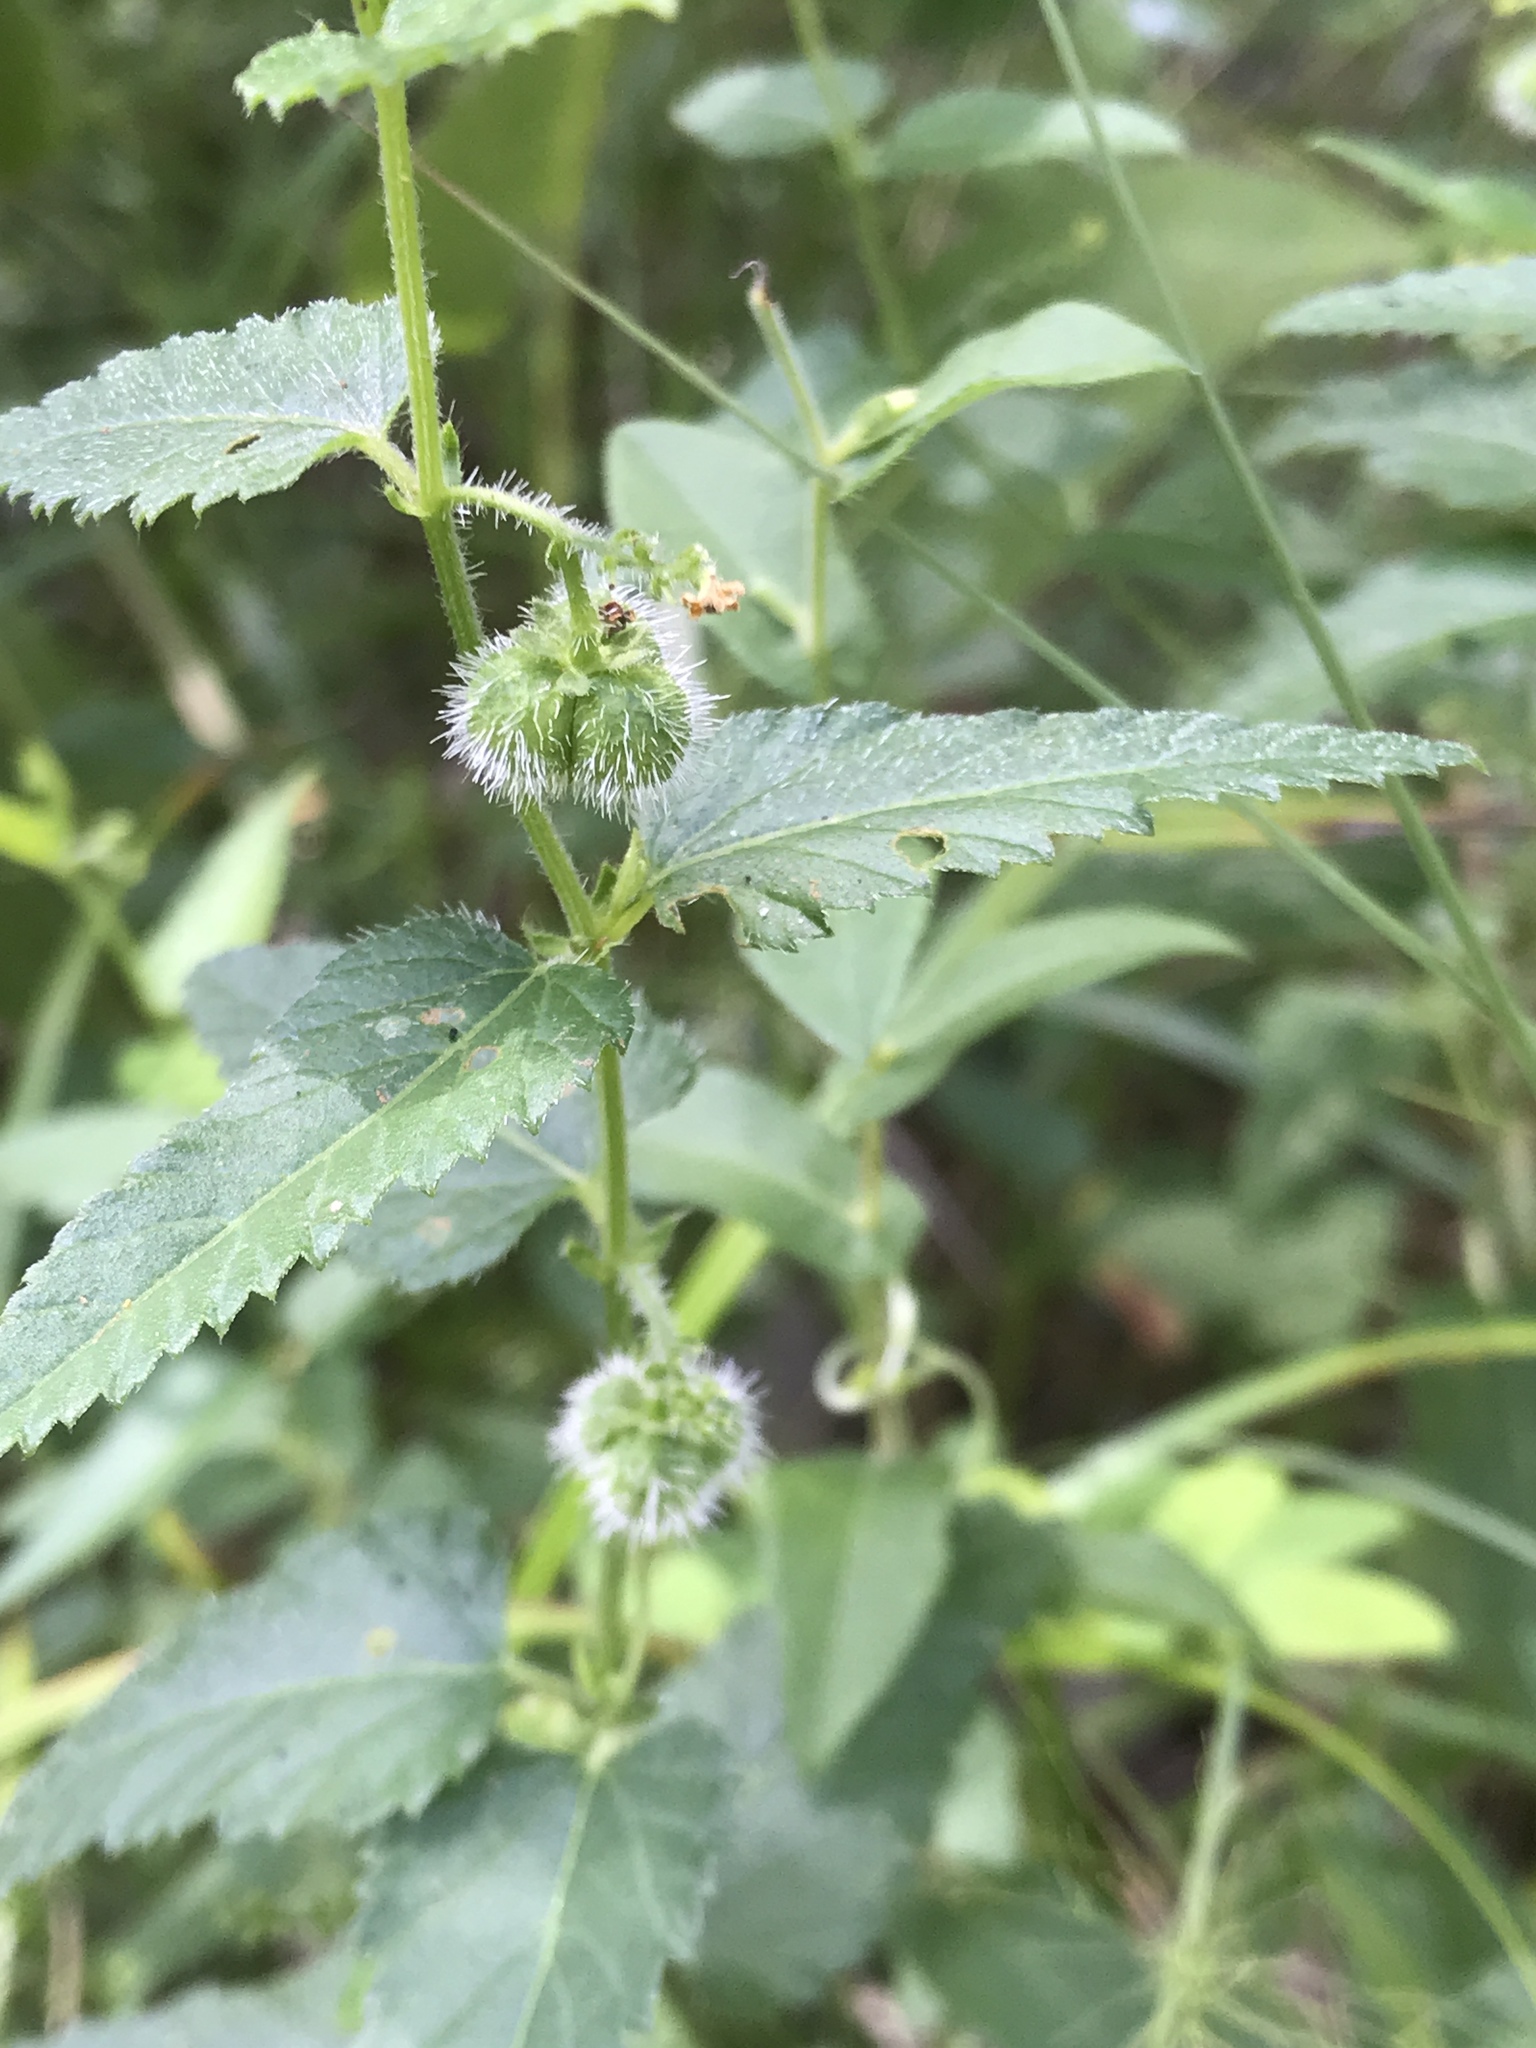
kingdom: Plantae
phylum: Tracheophyta
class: Magnoliopsida
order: Malpighiales
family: Euphorbiaceae
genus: Tragia
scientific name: Tragia urticifolia
